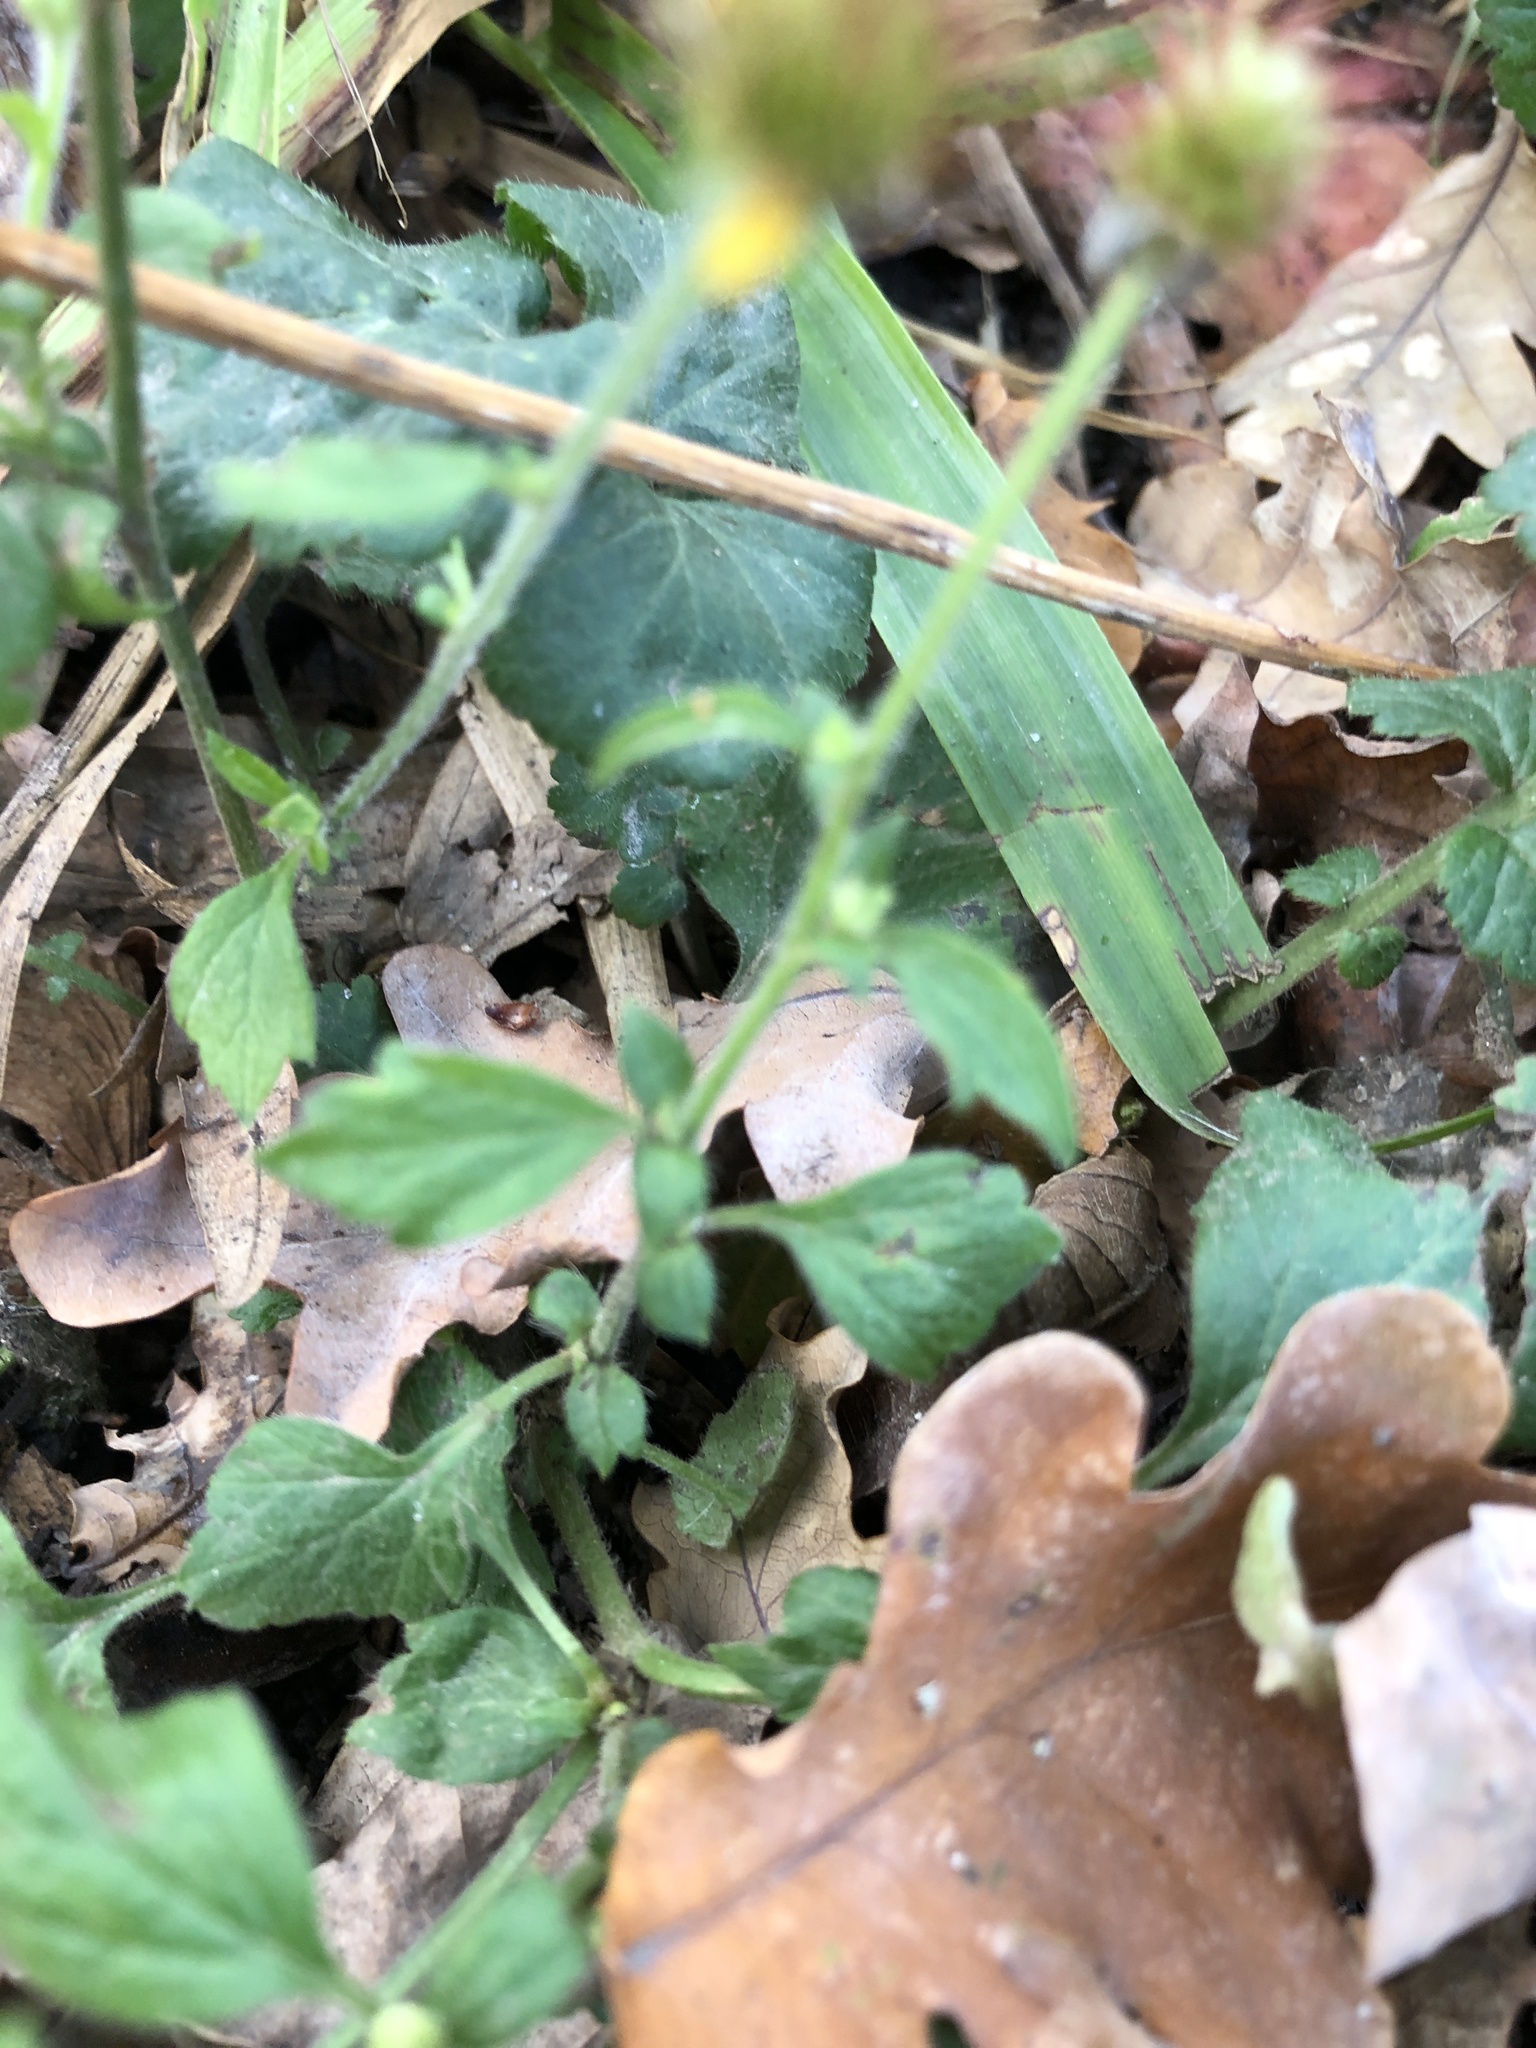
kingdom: Plantae
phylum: Tracheophyta
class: Magnoliopsida
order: Rosales
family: Rosaceae
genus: Geum
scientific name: Geum urbanum
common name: Wood avens
